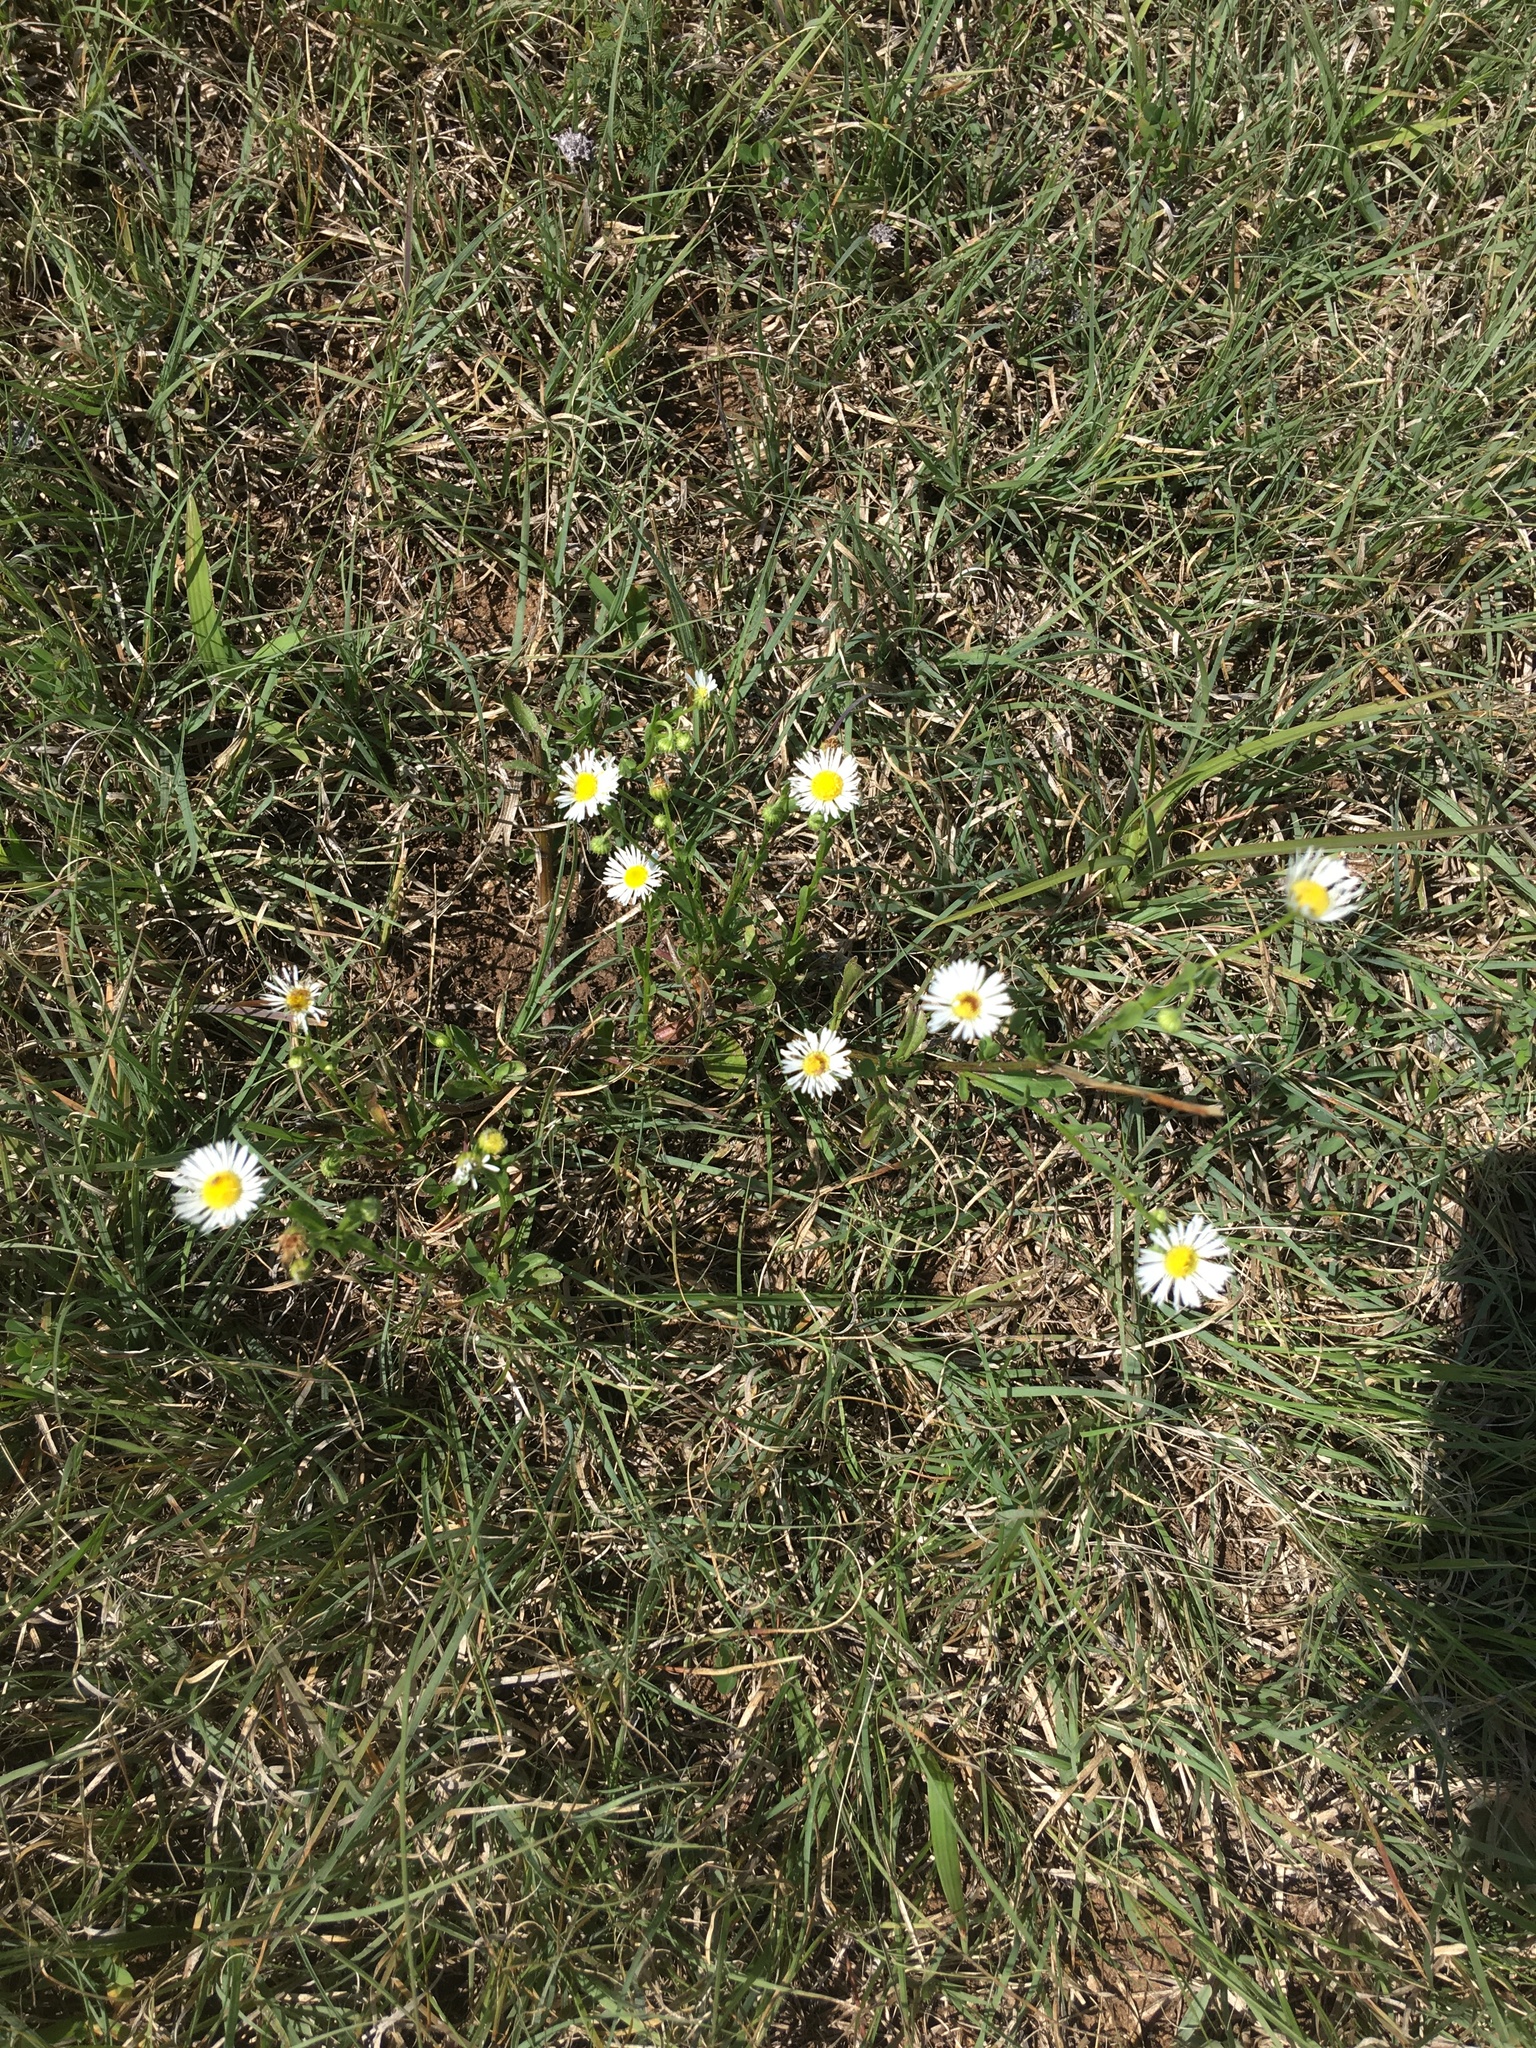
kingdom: Plantae
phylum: Tracheophyta
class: Magnoliopsida
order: Asterales
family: Asteraceae
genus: Erigeron
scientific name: Erigeron strigosus
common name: Common eastern fleabane
